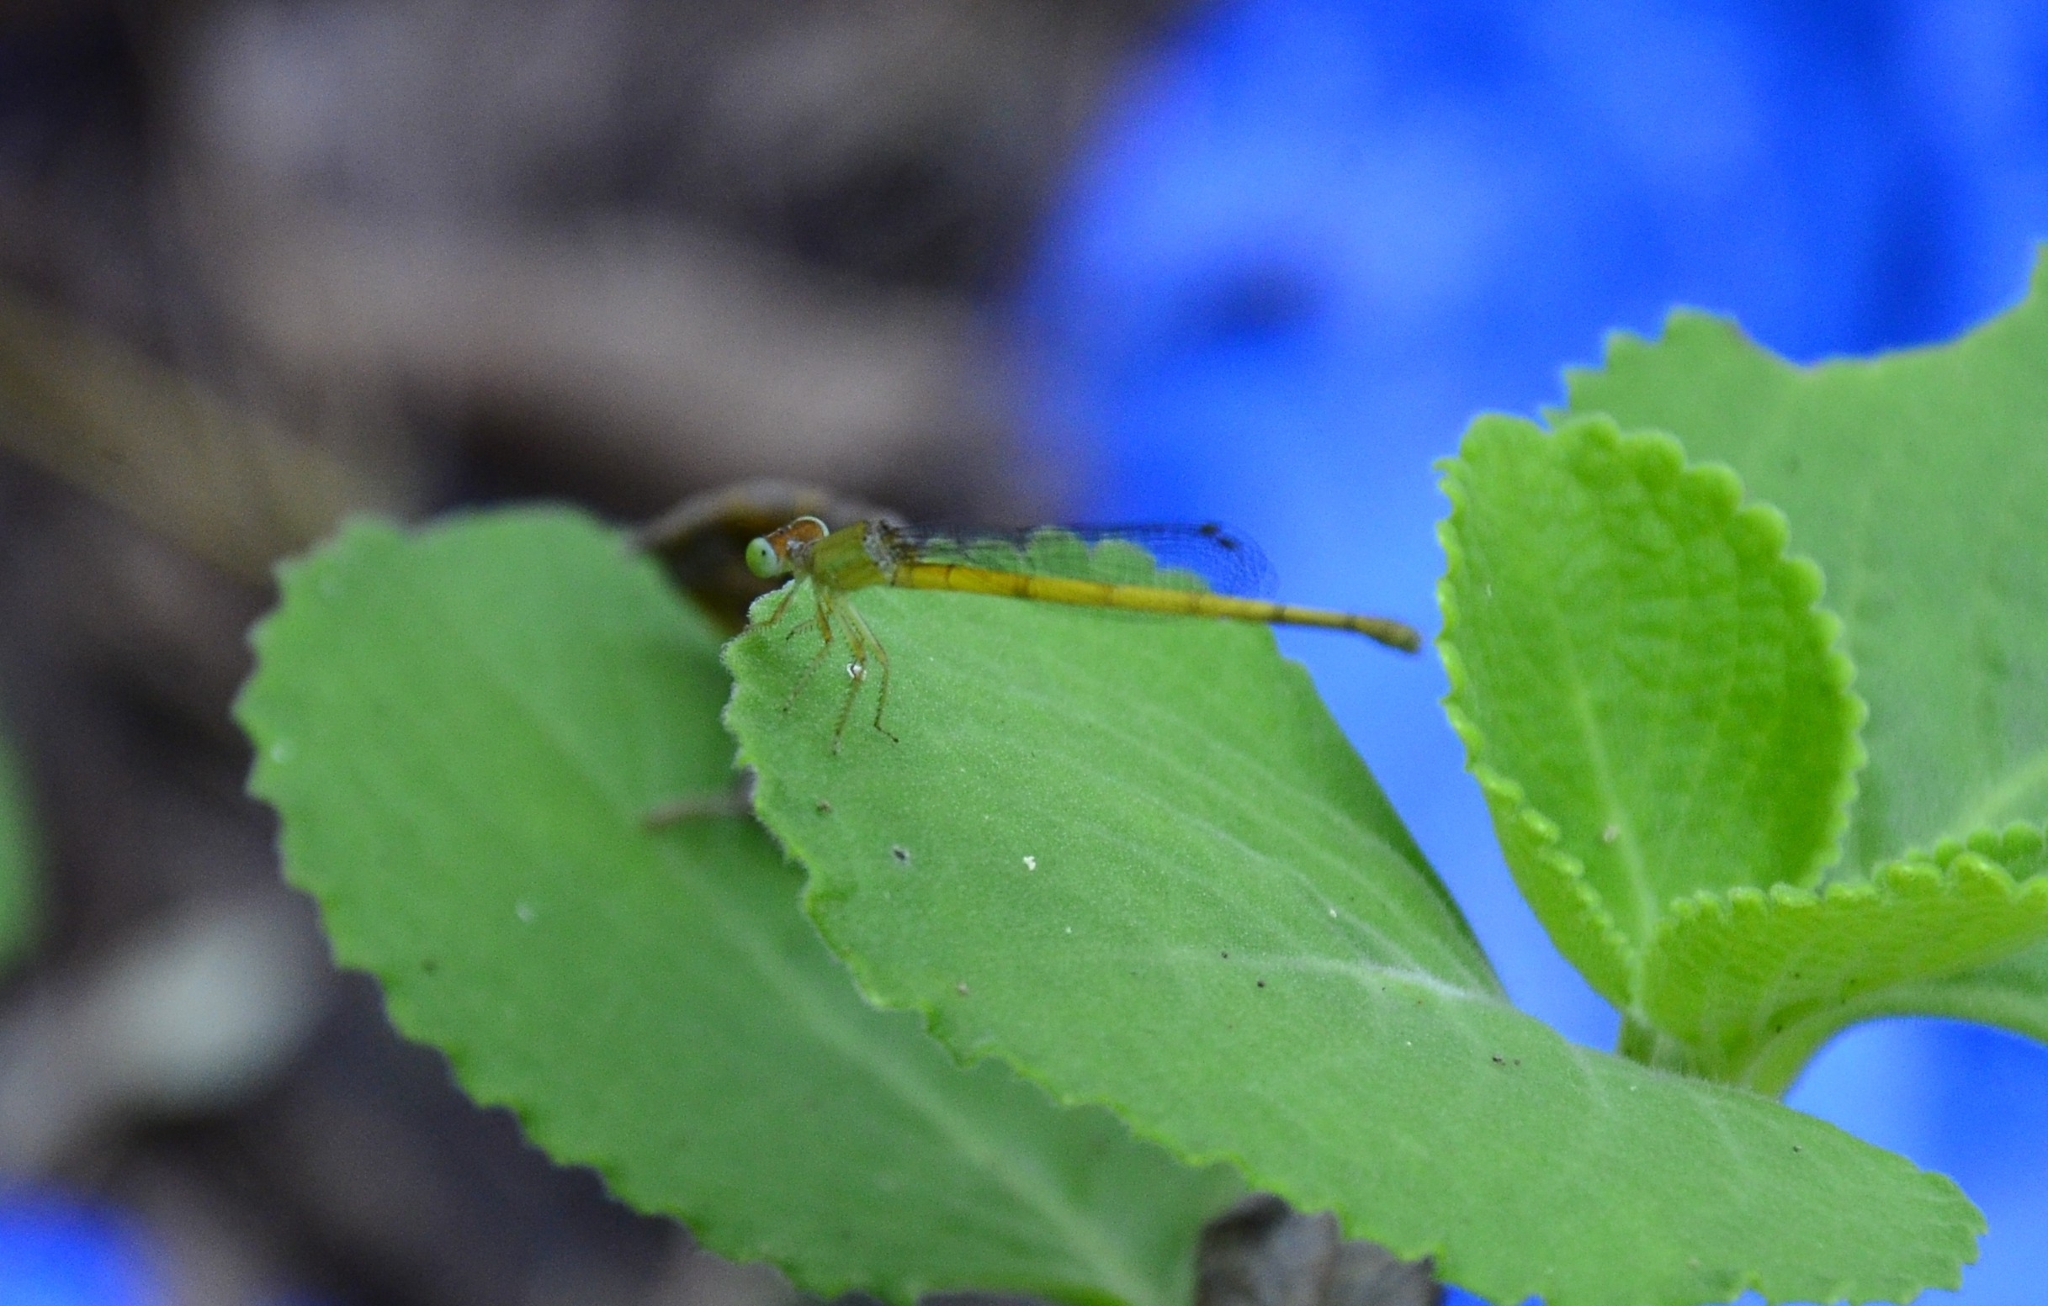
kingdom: Animalia
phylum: Arthropoda
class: Insecta
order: Odonata
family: Coenagrionidae
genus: Ceriagrion
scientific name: Ceriagrion coromandelianum
